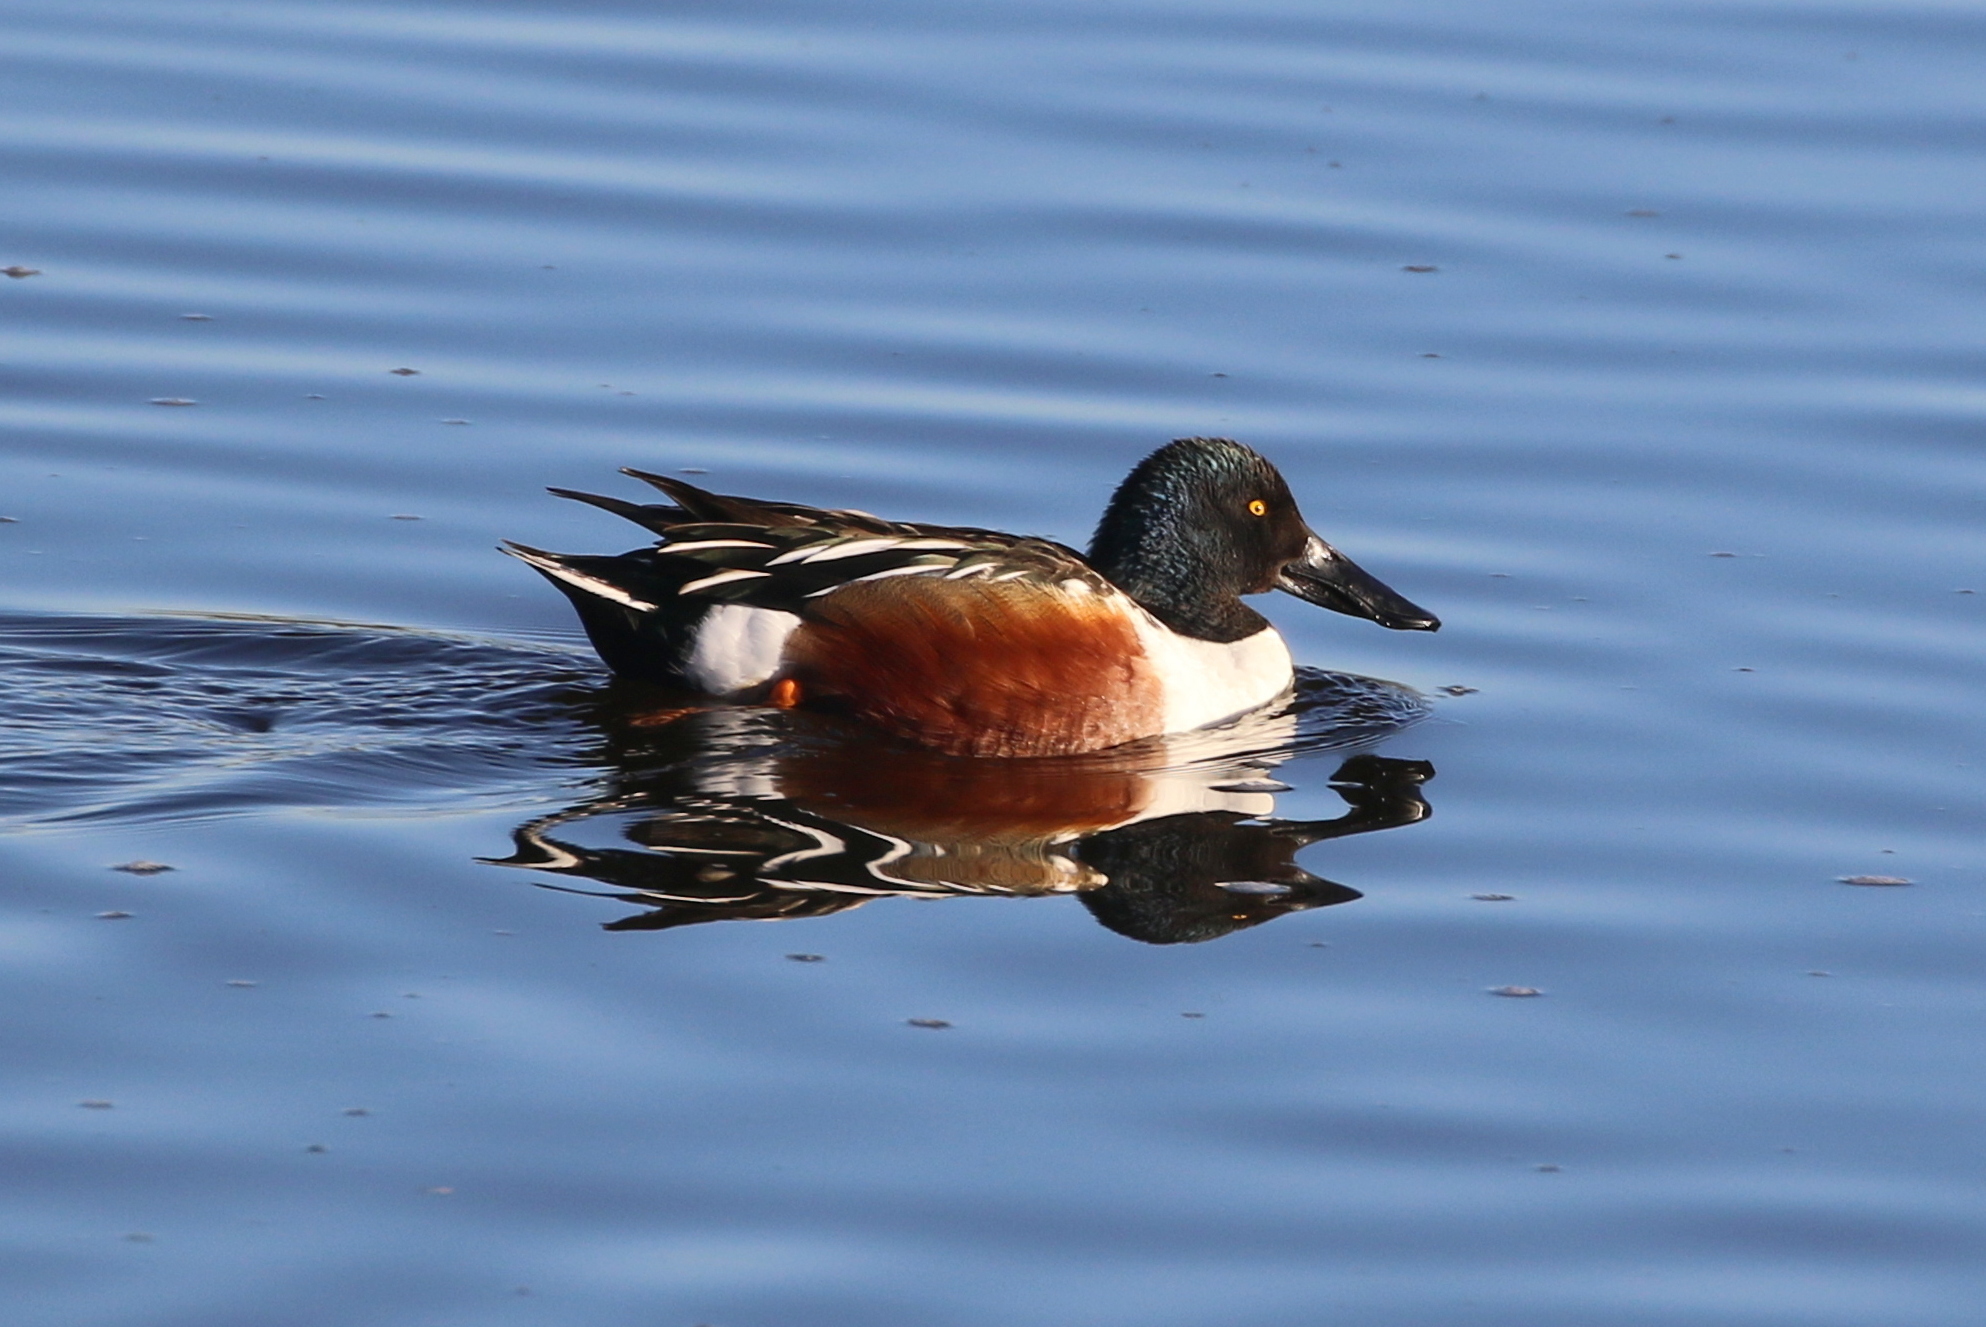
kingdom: Animalia
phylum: Chordata
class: Aves
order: Anseriformes
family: Anatidae
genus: Spatula
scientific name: Spatula clypeata
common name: Northern shoveler
